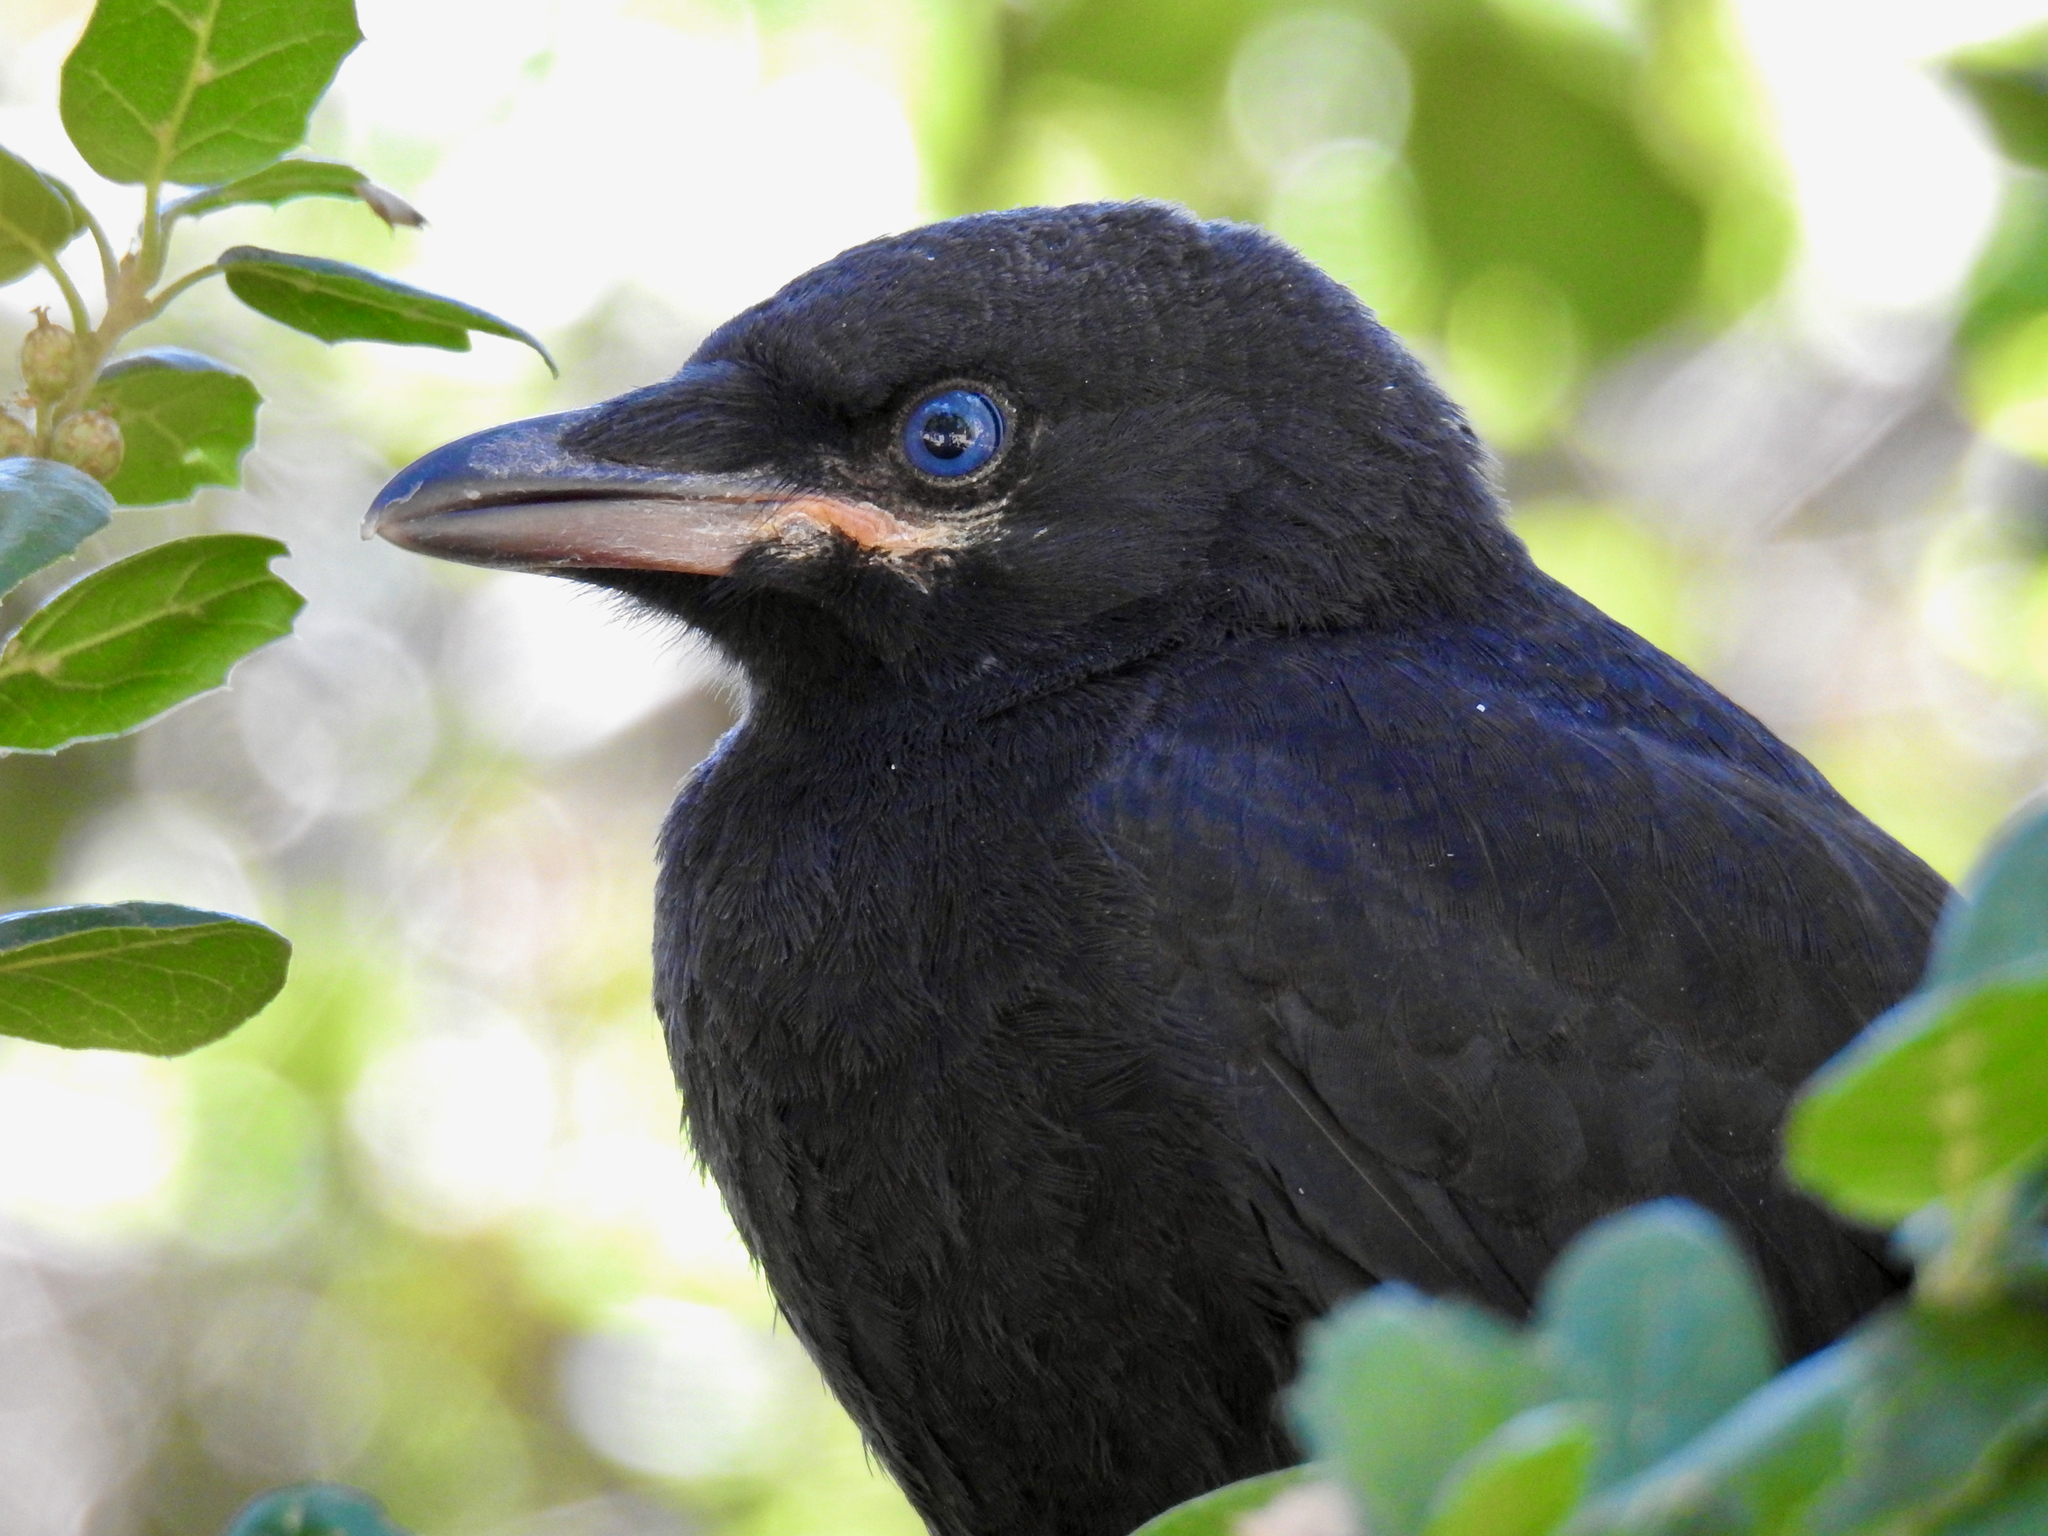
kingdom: Animalia
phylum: Chordata
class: Aves
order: Passeriformes
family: Corvidae
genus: Corvus
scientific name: Corvus brachyrhynchos
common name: American crow
